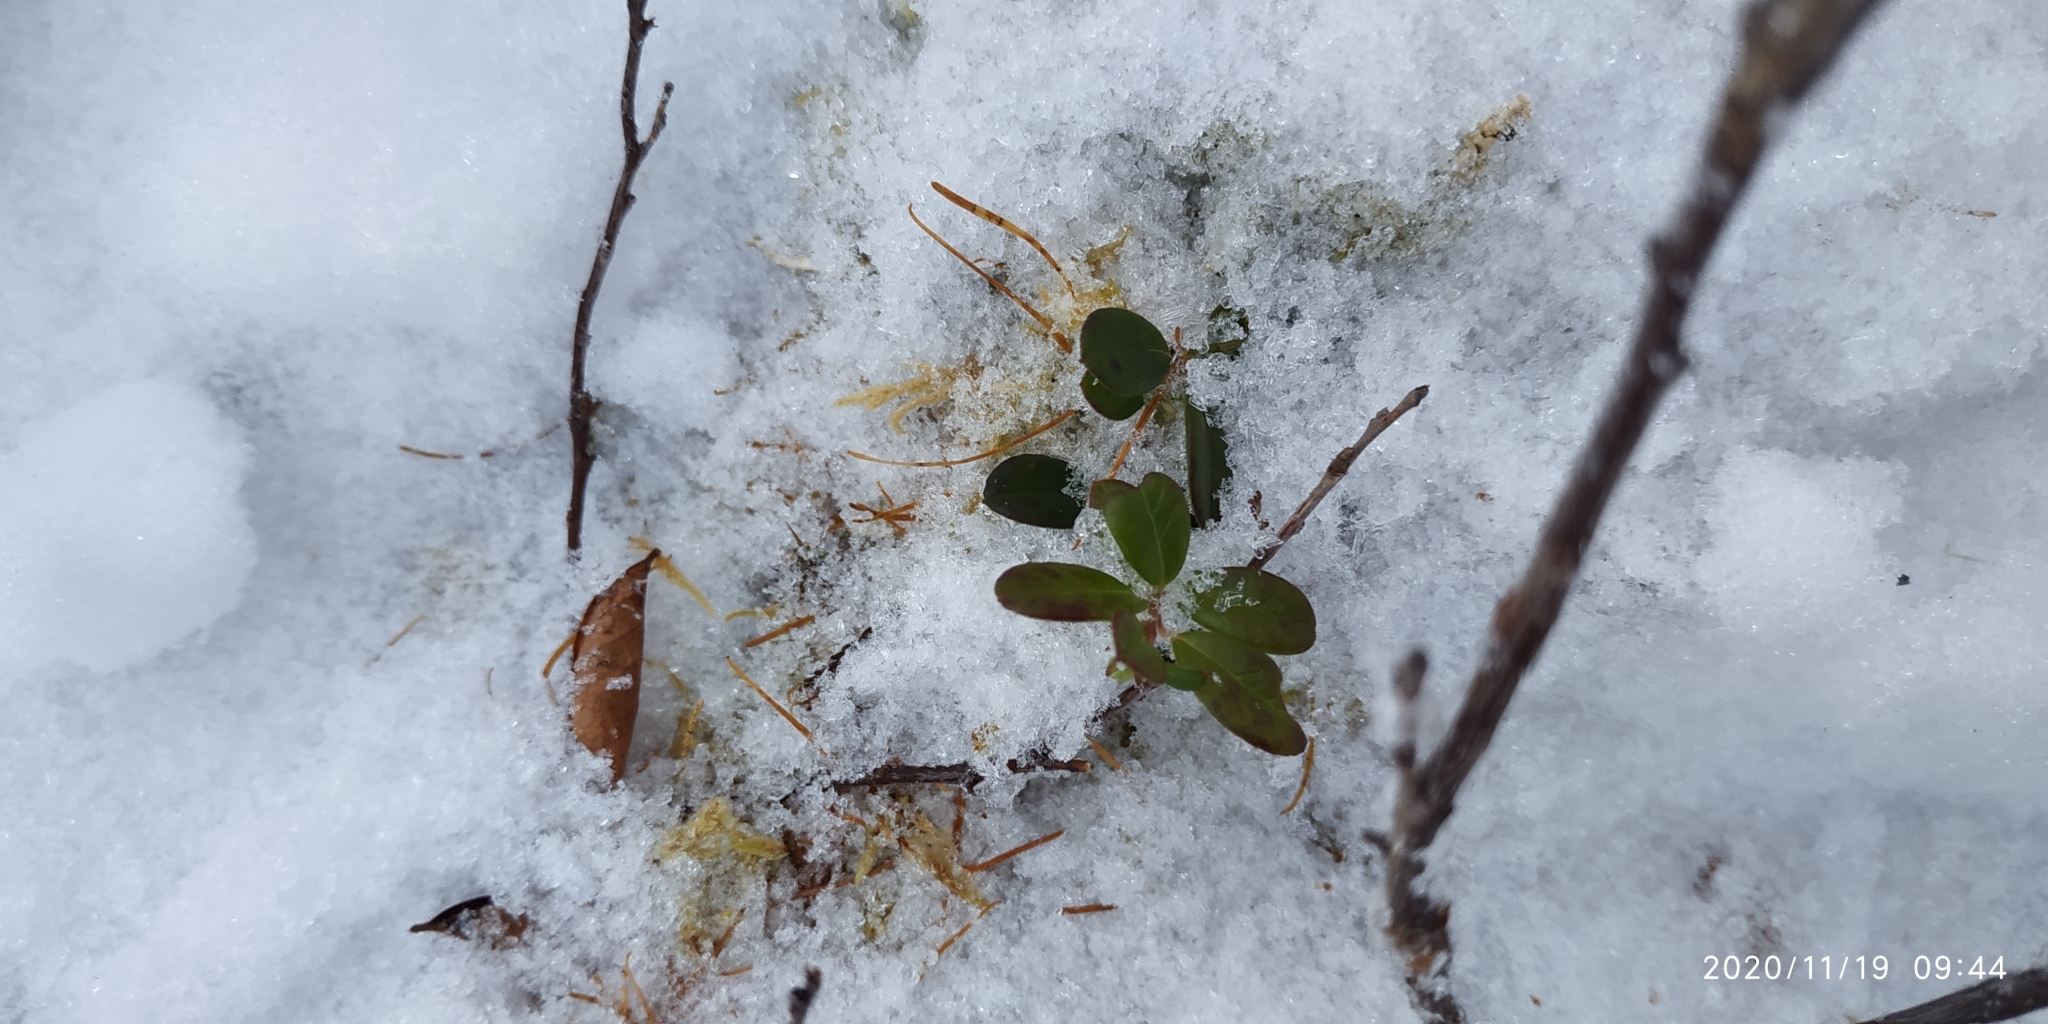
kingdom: Plantae
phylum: Tracheophyta
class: Magnoliopsida
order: Ericales
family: Ericaceae
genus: Vaccinium
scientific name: Vaccinium vitis-idaea
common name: Cowberry
